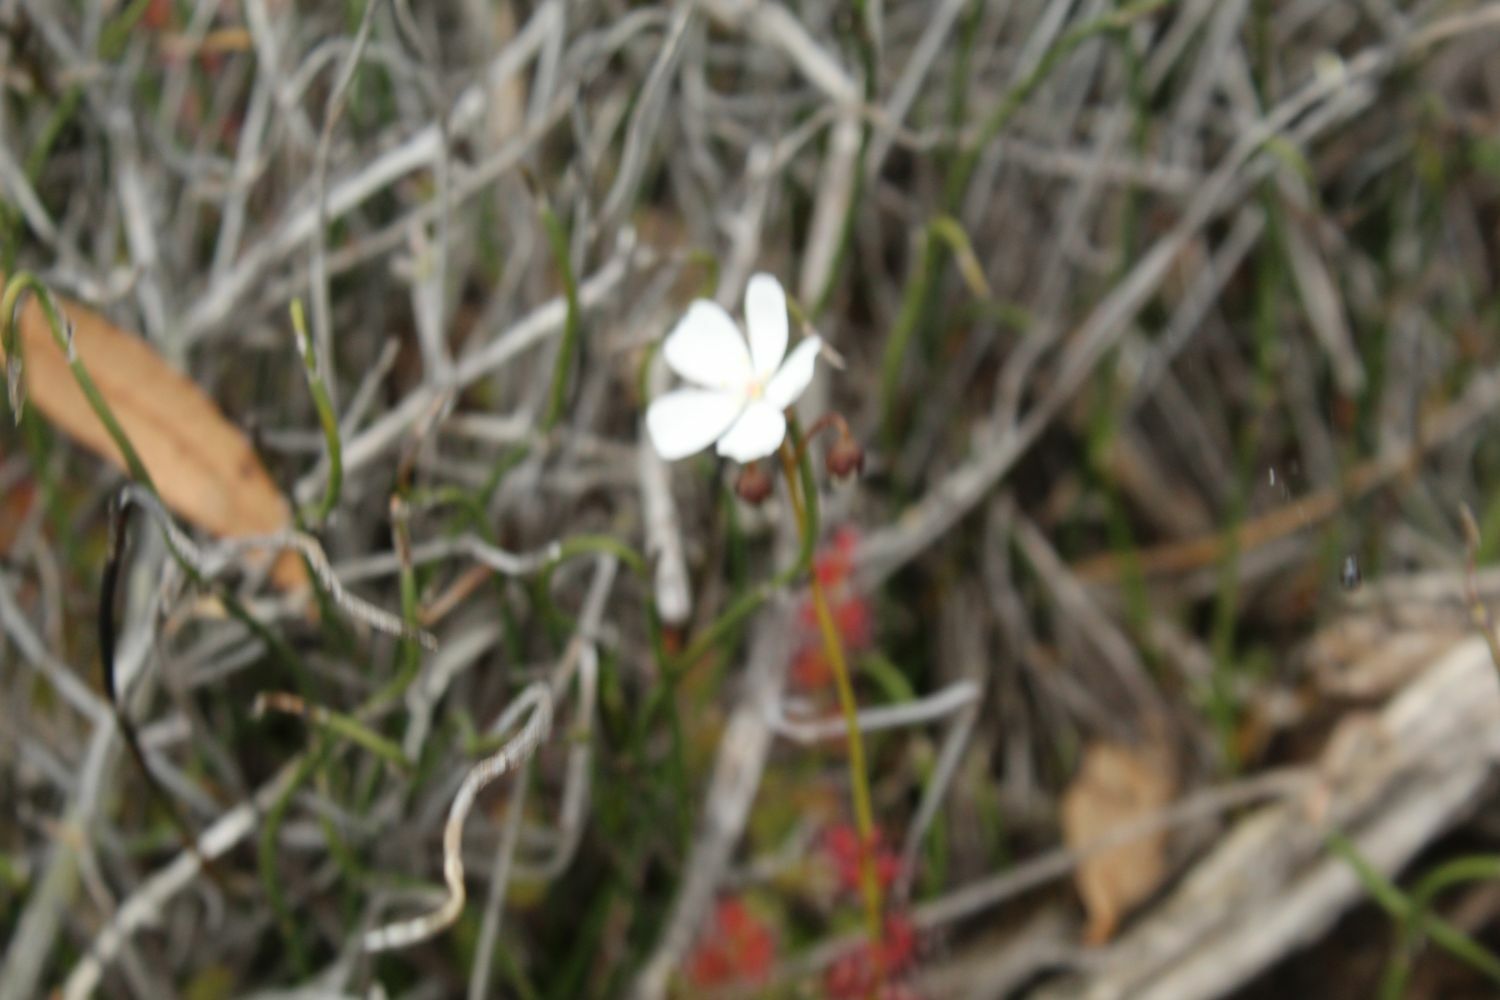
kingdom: Plantae
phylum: Tracheophyta
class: Magnoliopsida
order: Caryophyllales
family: Droseraceae
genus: Drosera
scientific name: Drosera platypoda
